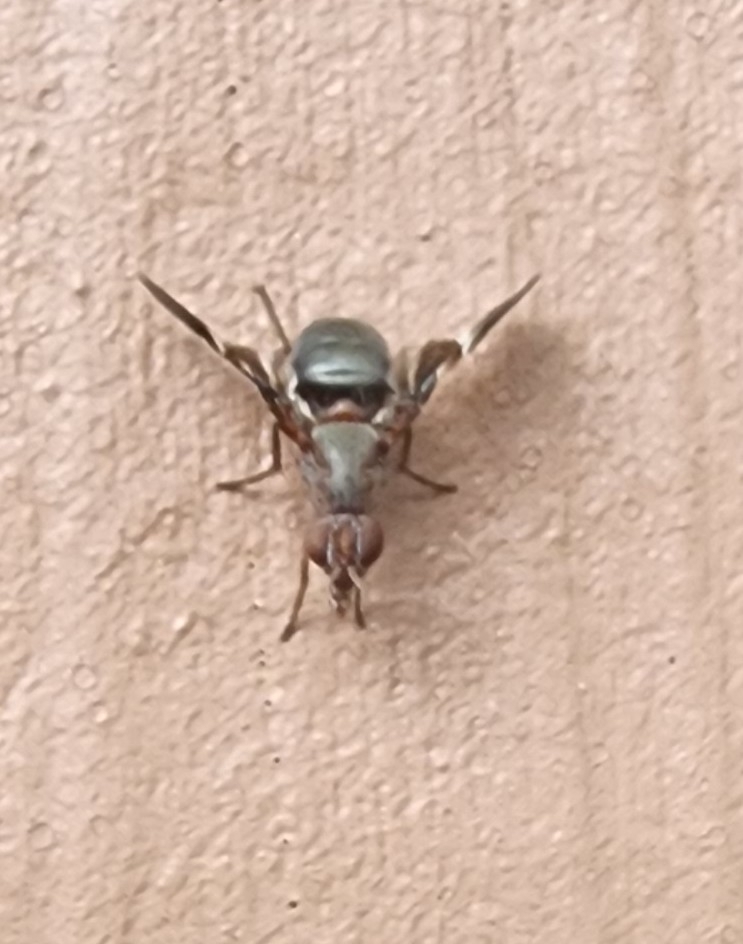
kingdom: Animalia
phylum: Arthropoda
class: Insecta
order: Diptera
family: Ulidiidae
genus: Delphinia
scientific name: Delphinia picta
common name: Common picture-winged fly
